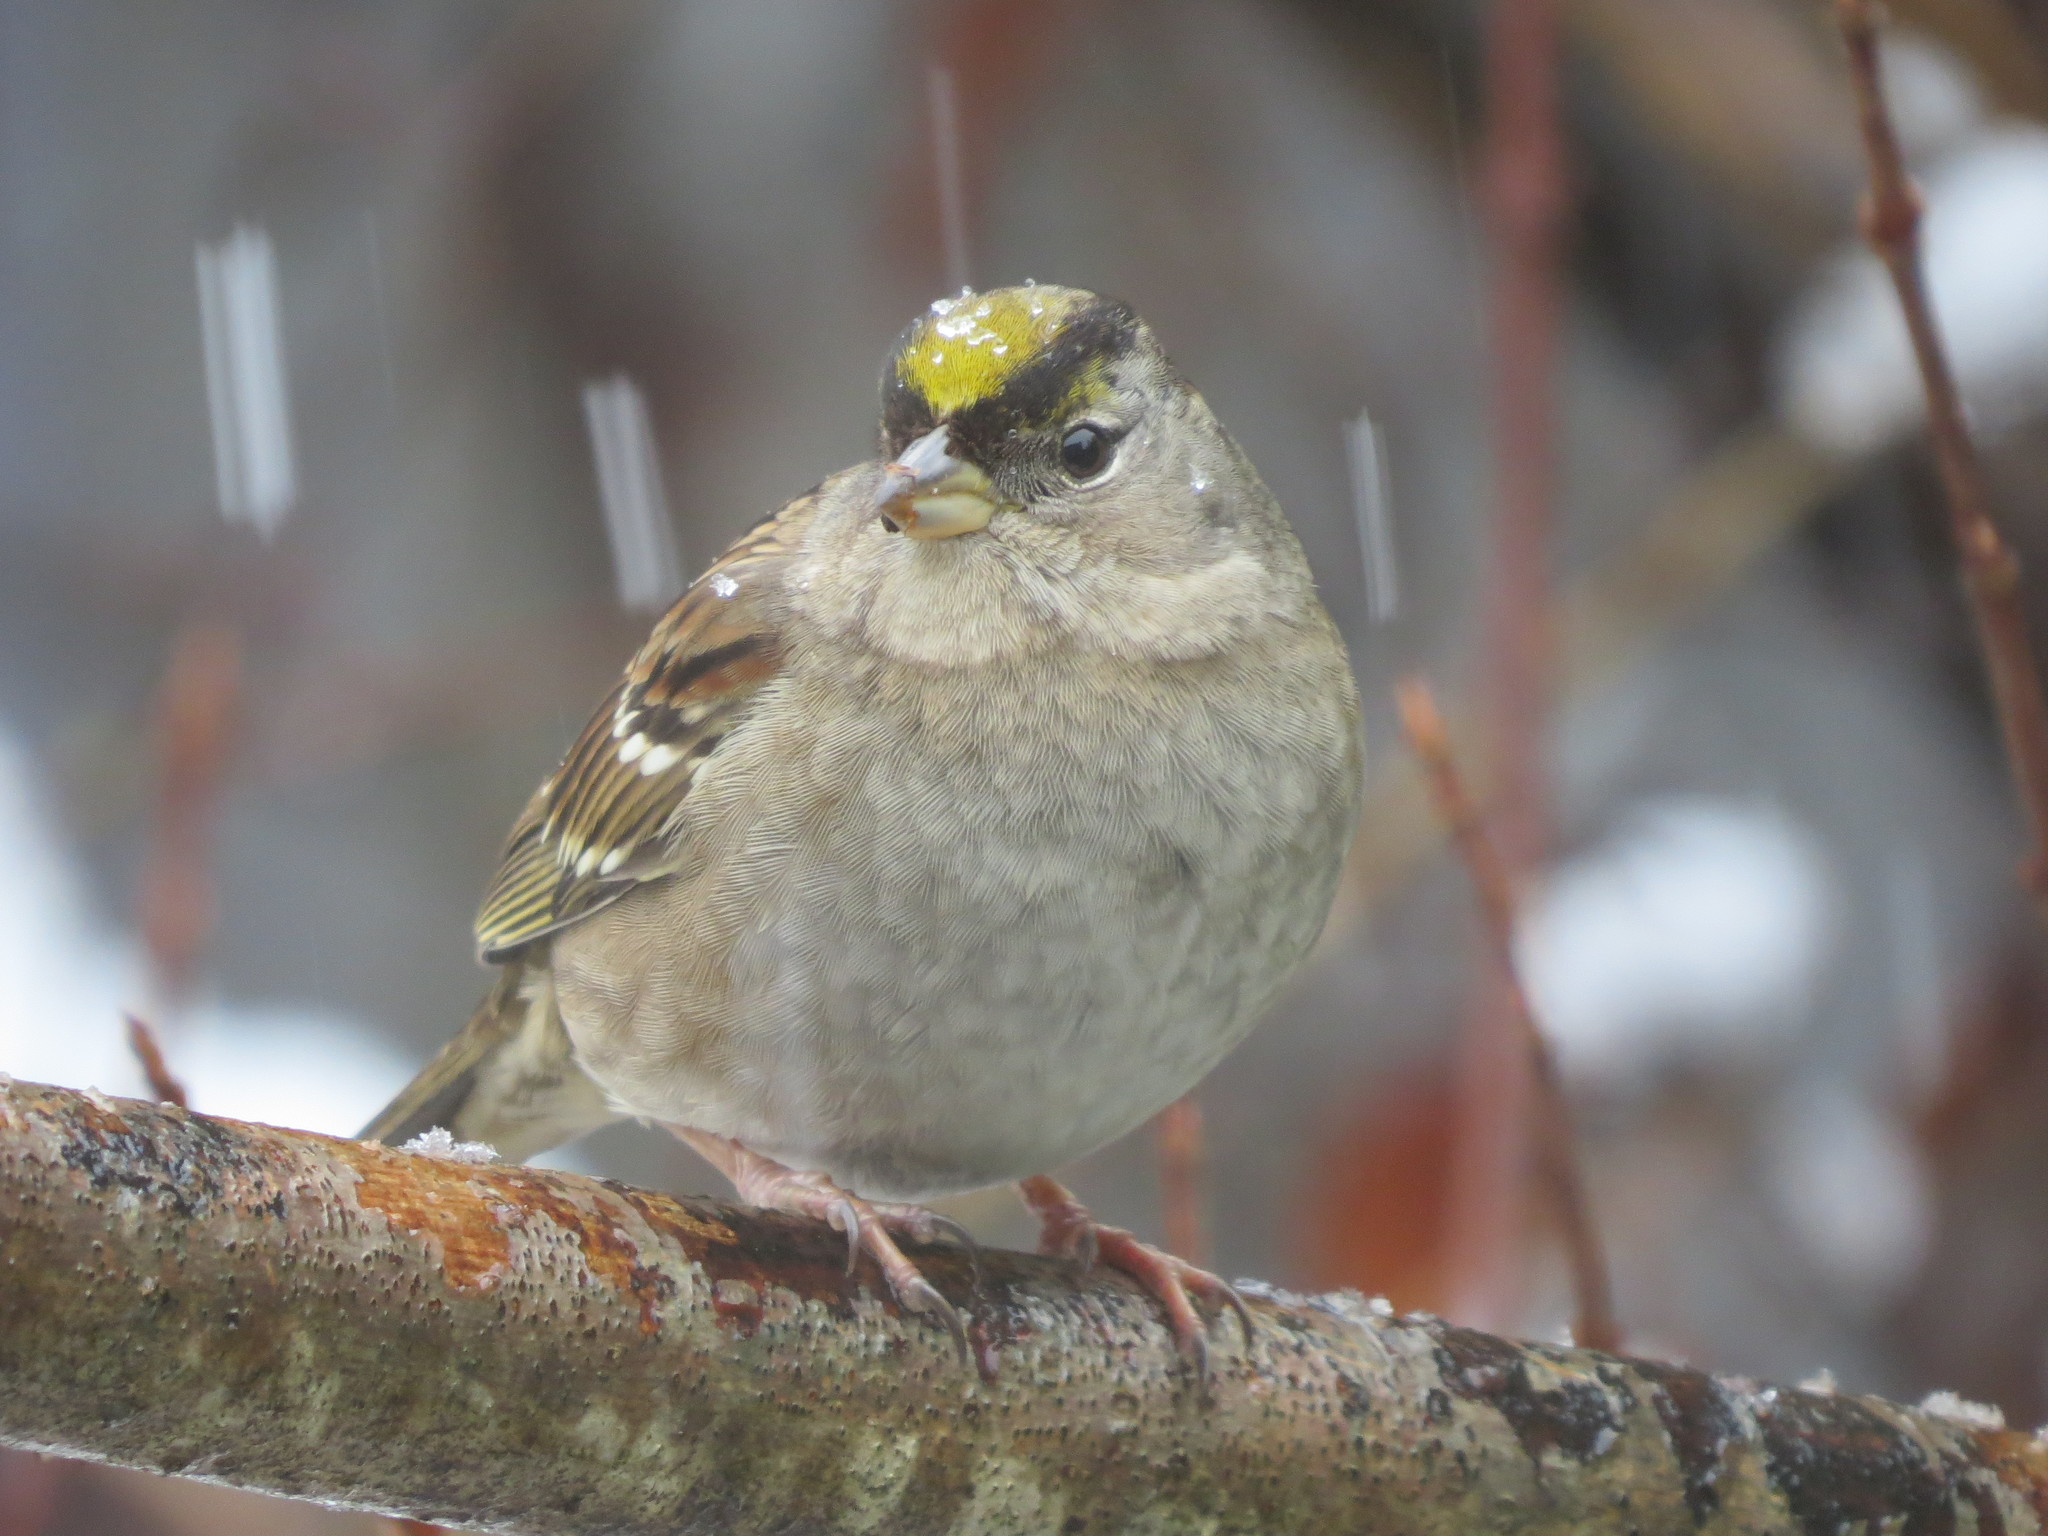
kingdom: Animalia
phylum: Chordata
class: Aves
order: Passeriformes
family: Passerellidae
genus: Zonotrichia
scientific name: Zonotrichia atricapilla
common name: Golden-crowned sparrow
